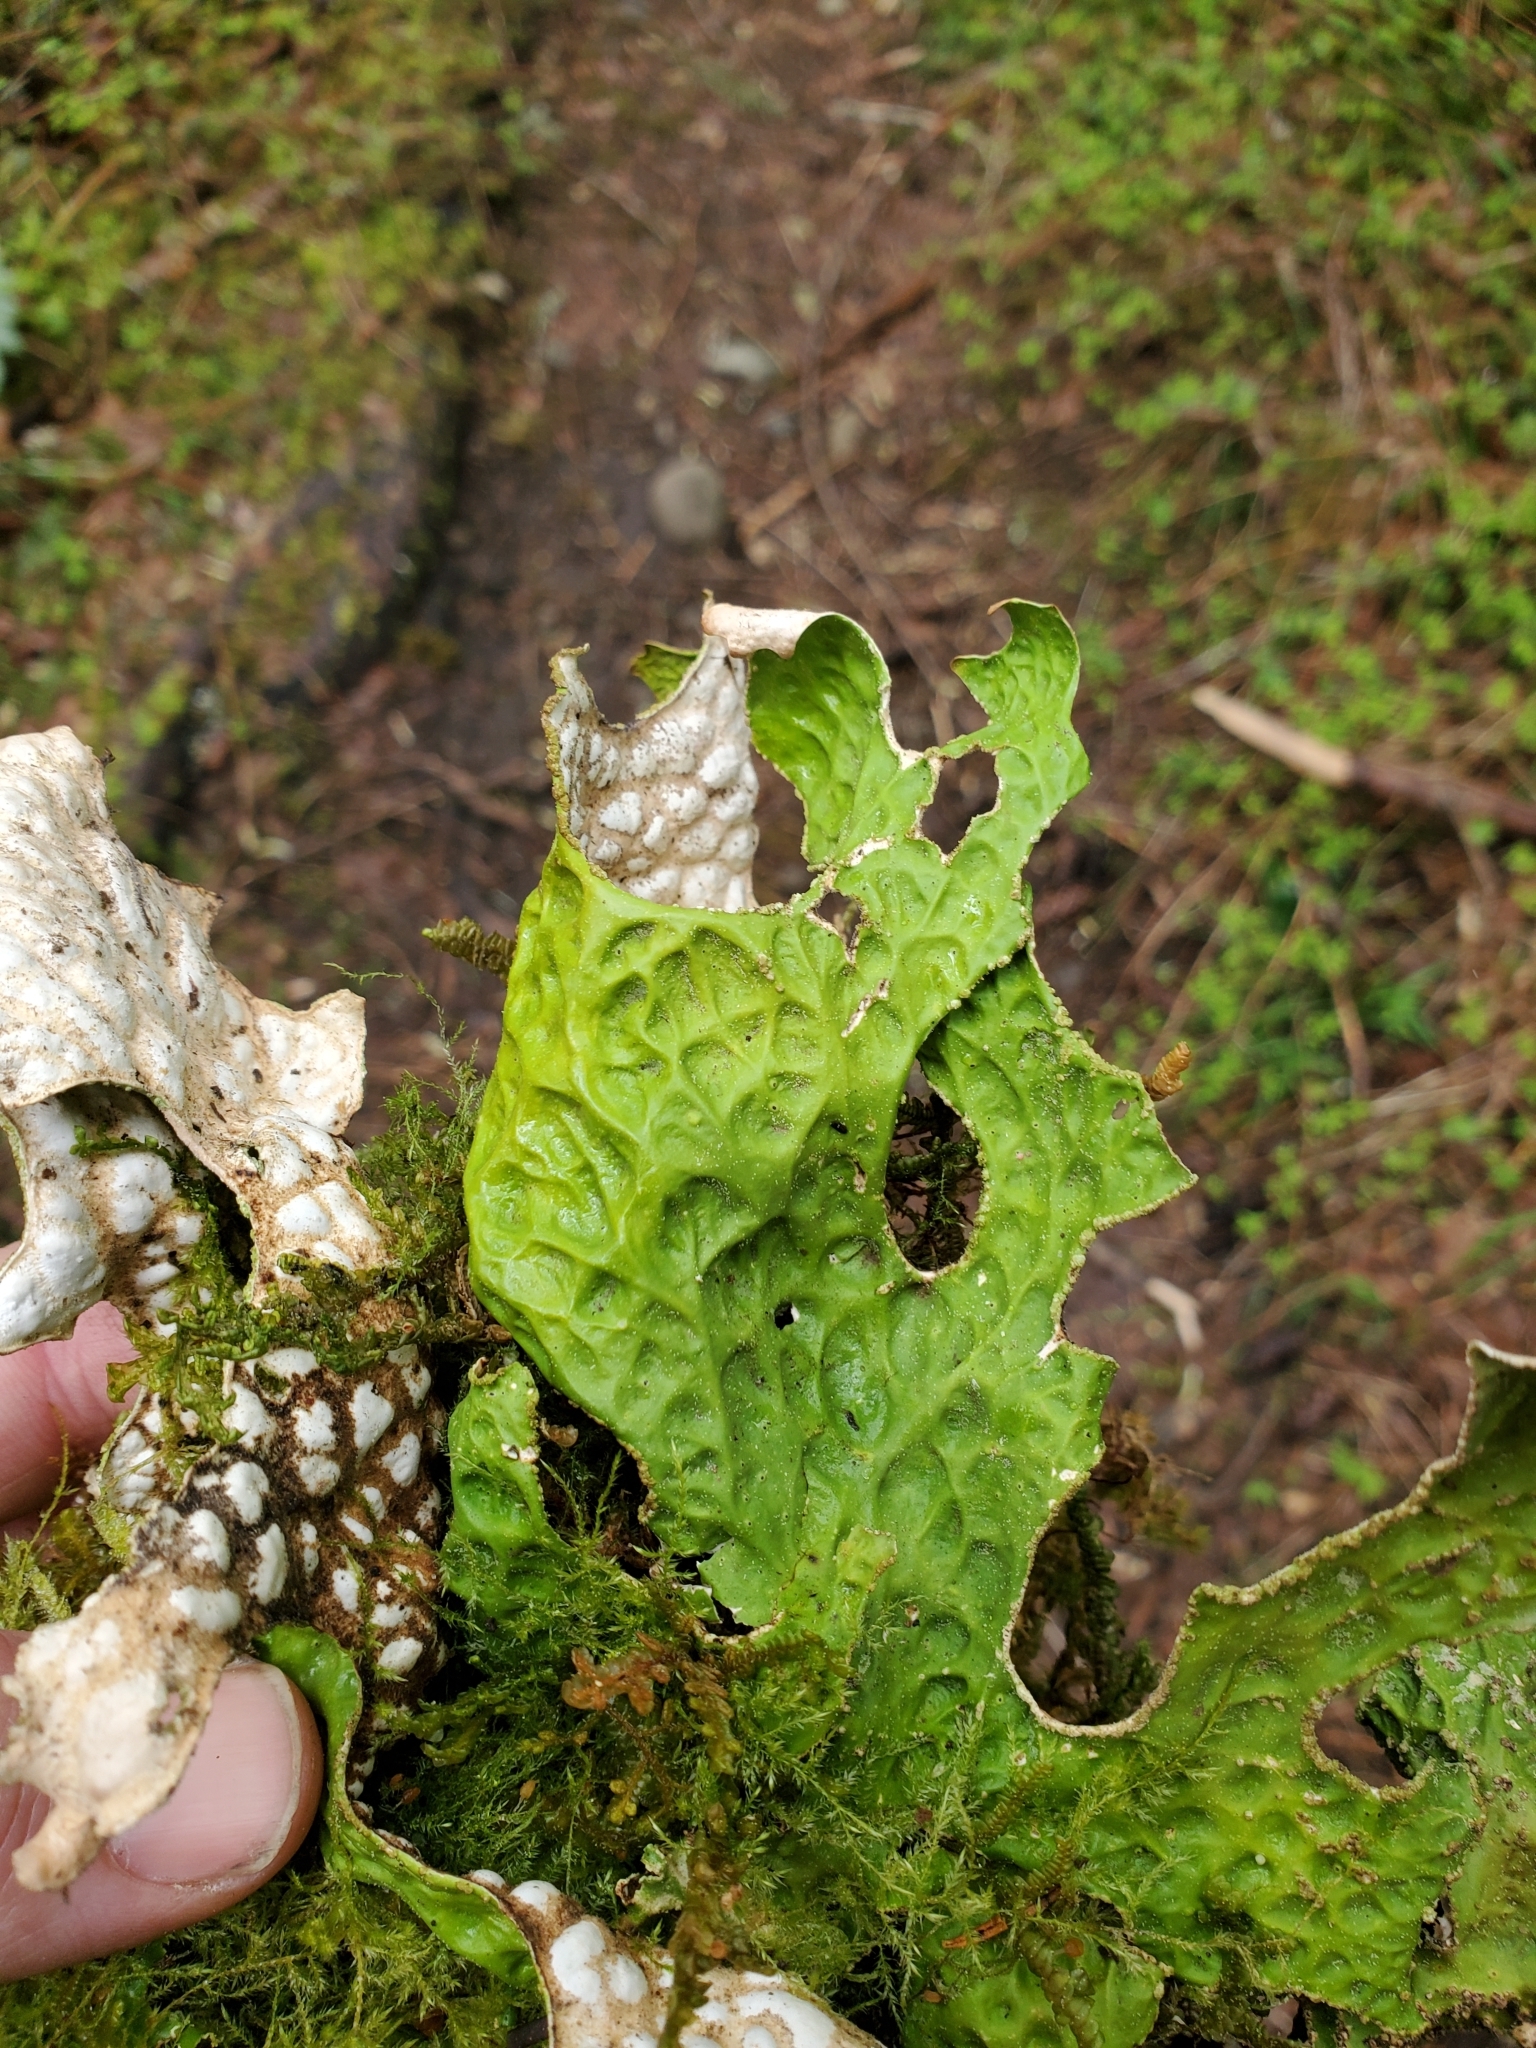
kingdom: Fungi
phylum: Ascomycota
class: Lecanoromycetes
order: Peltigerales
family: Lobariaceae
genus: Lobaria
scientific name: Lobaria pulmonaria
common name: Lungwort
